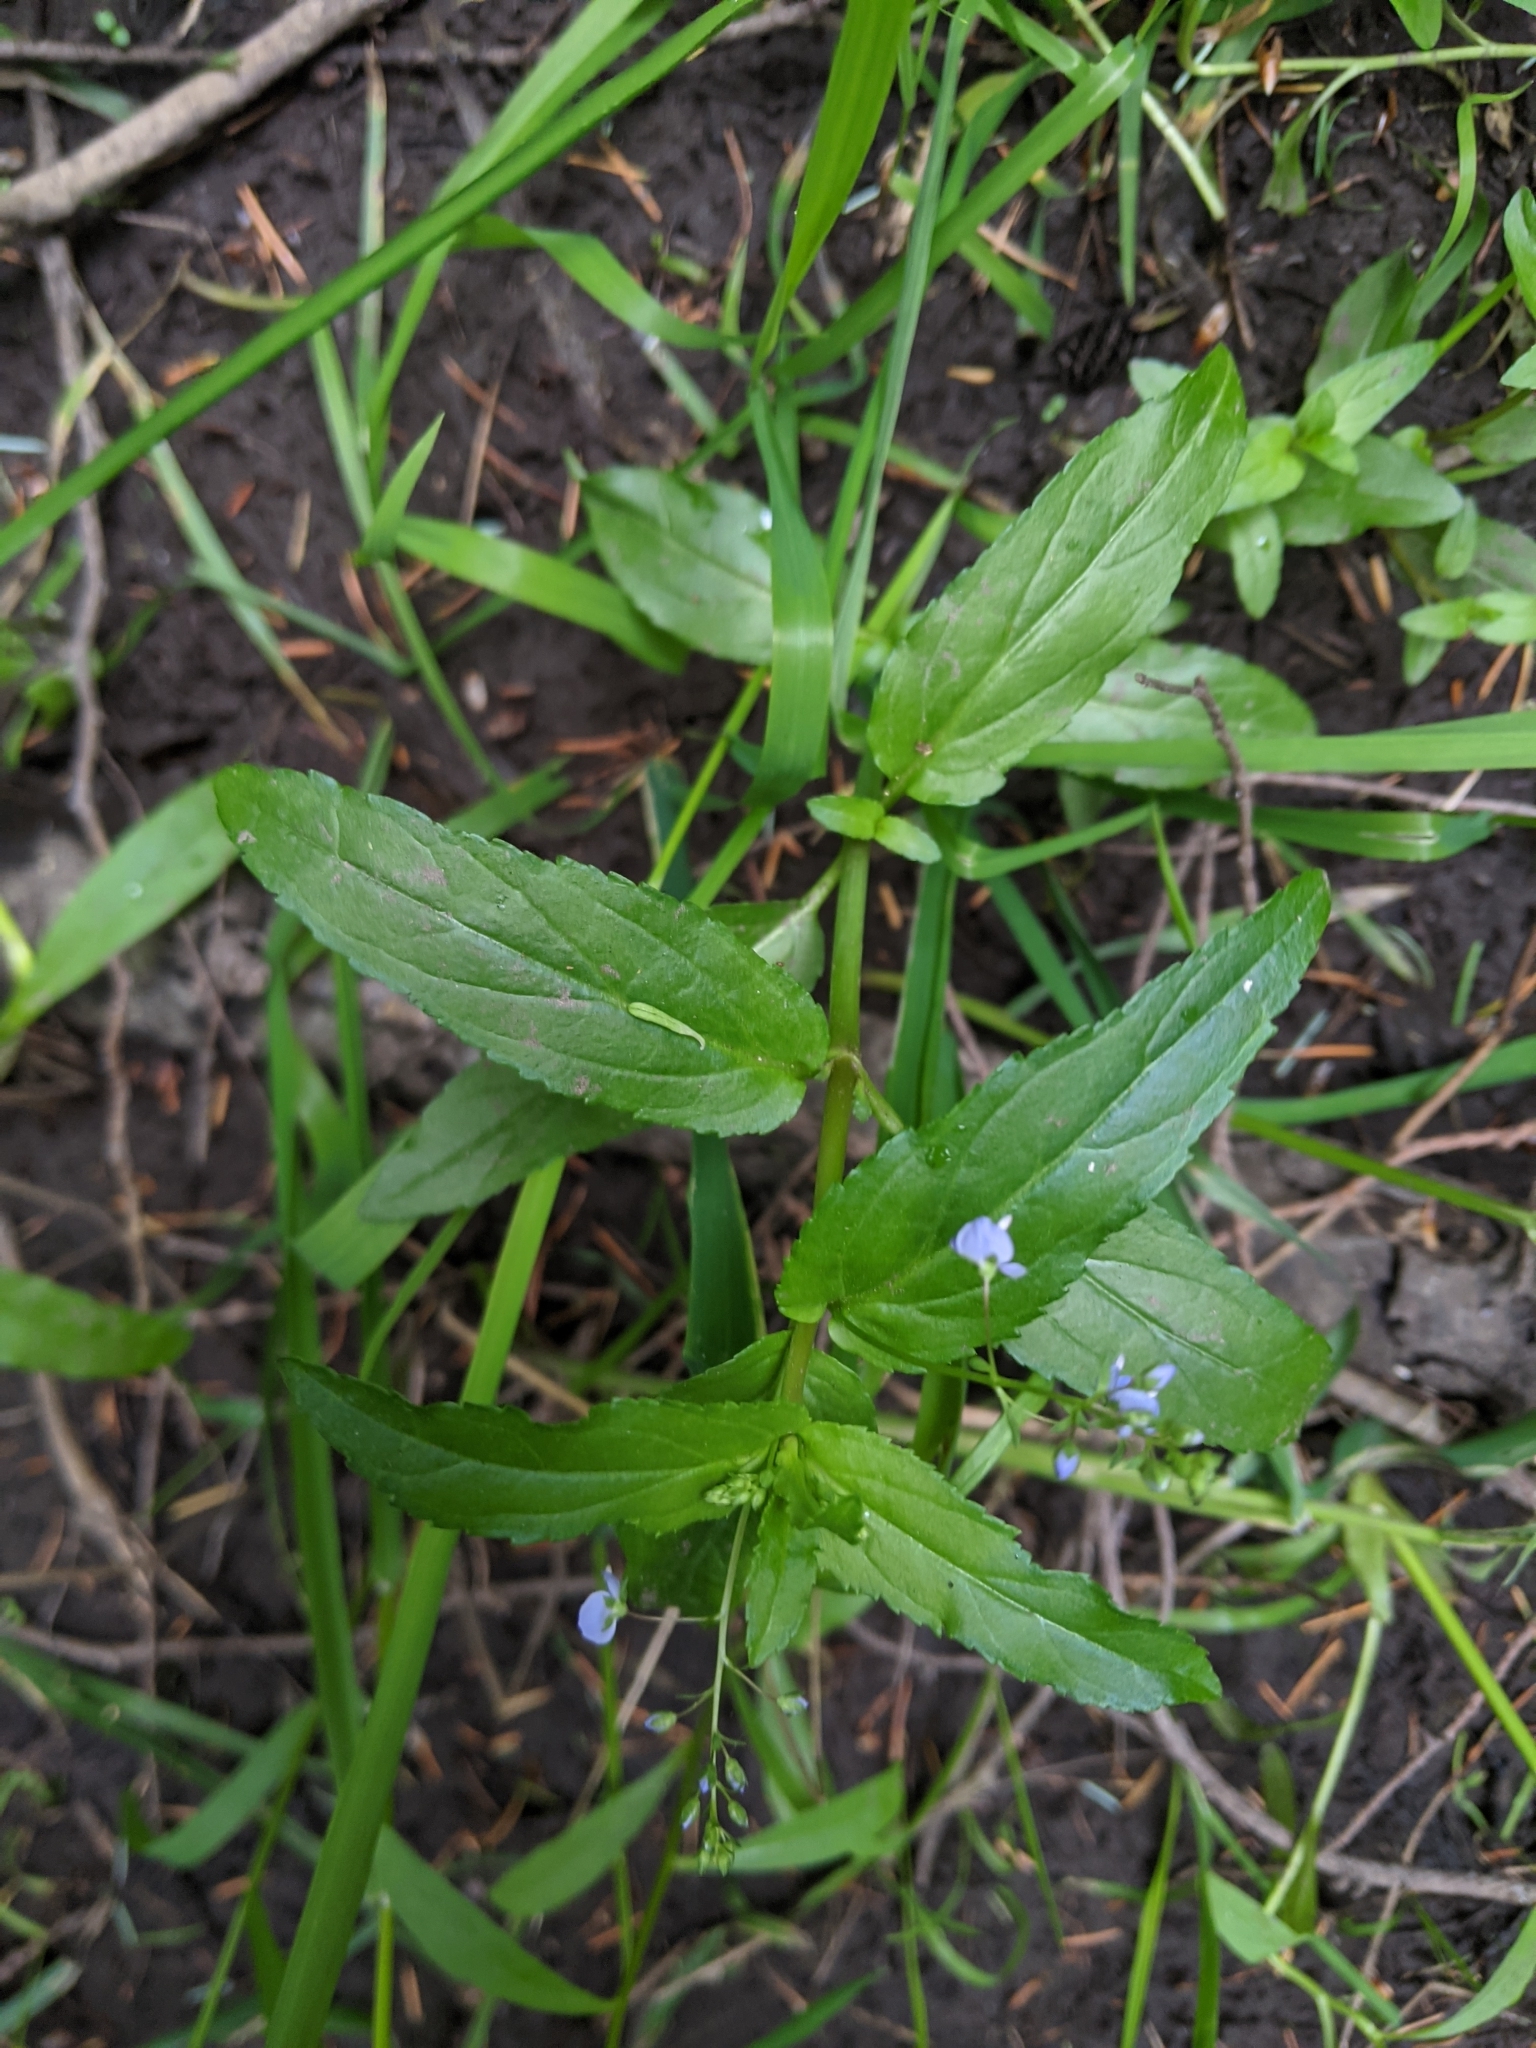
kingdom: Plantae
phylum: Tracheophyta
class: Magnoliopsida
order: Lamiales
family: Plantaginaceae
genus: Veronica
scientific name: Veronica americana
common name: American brooklime
